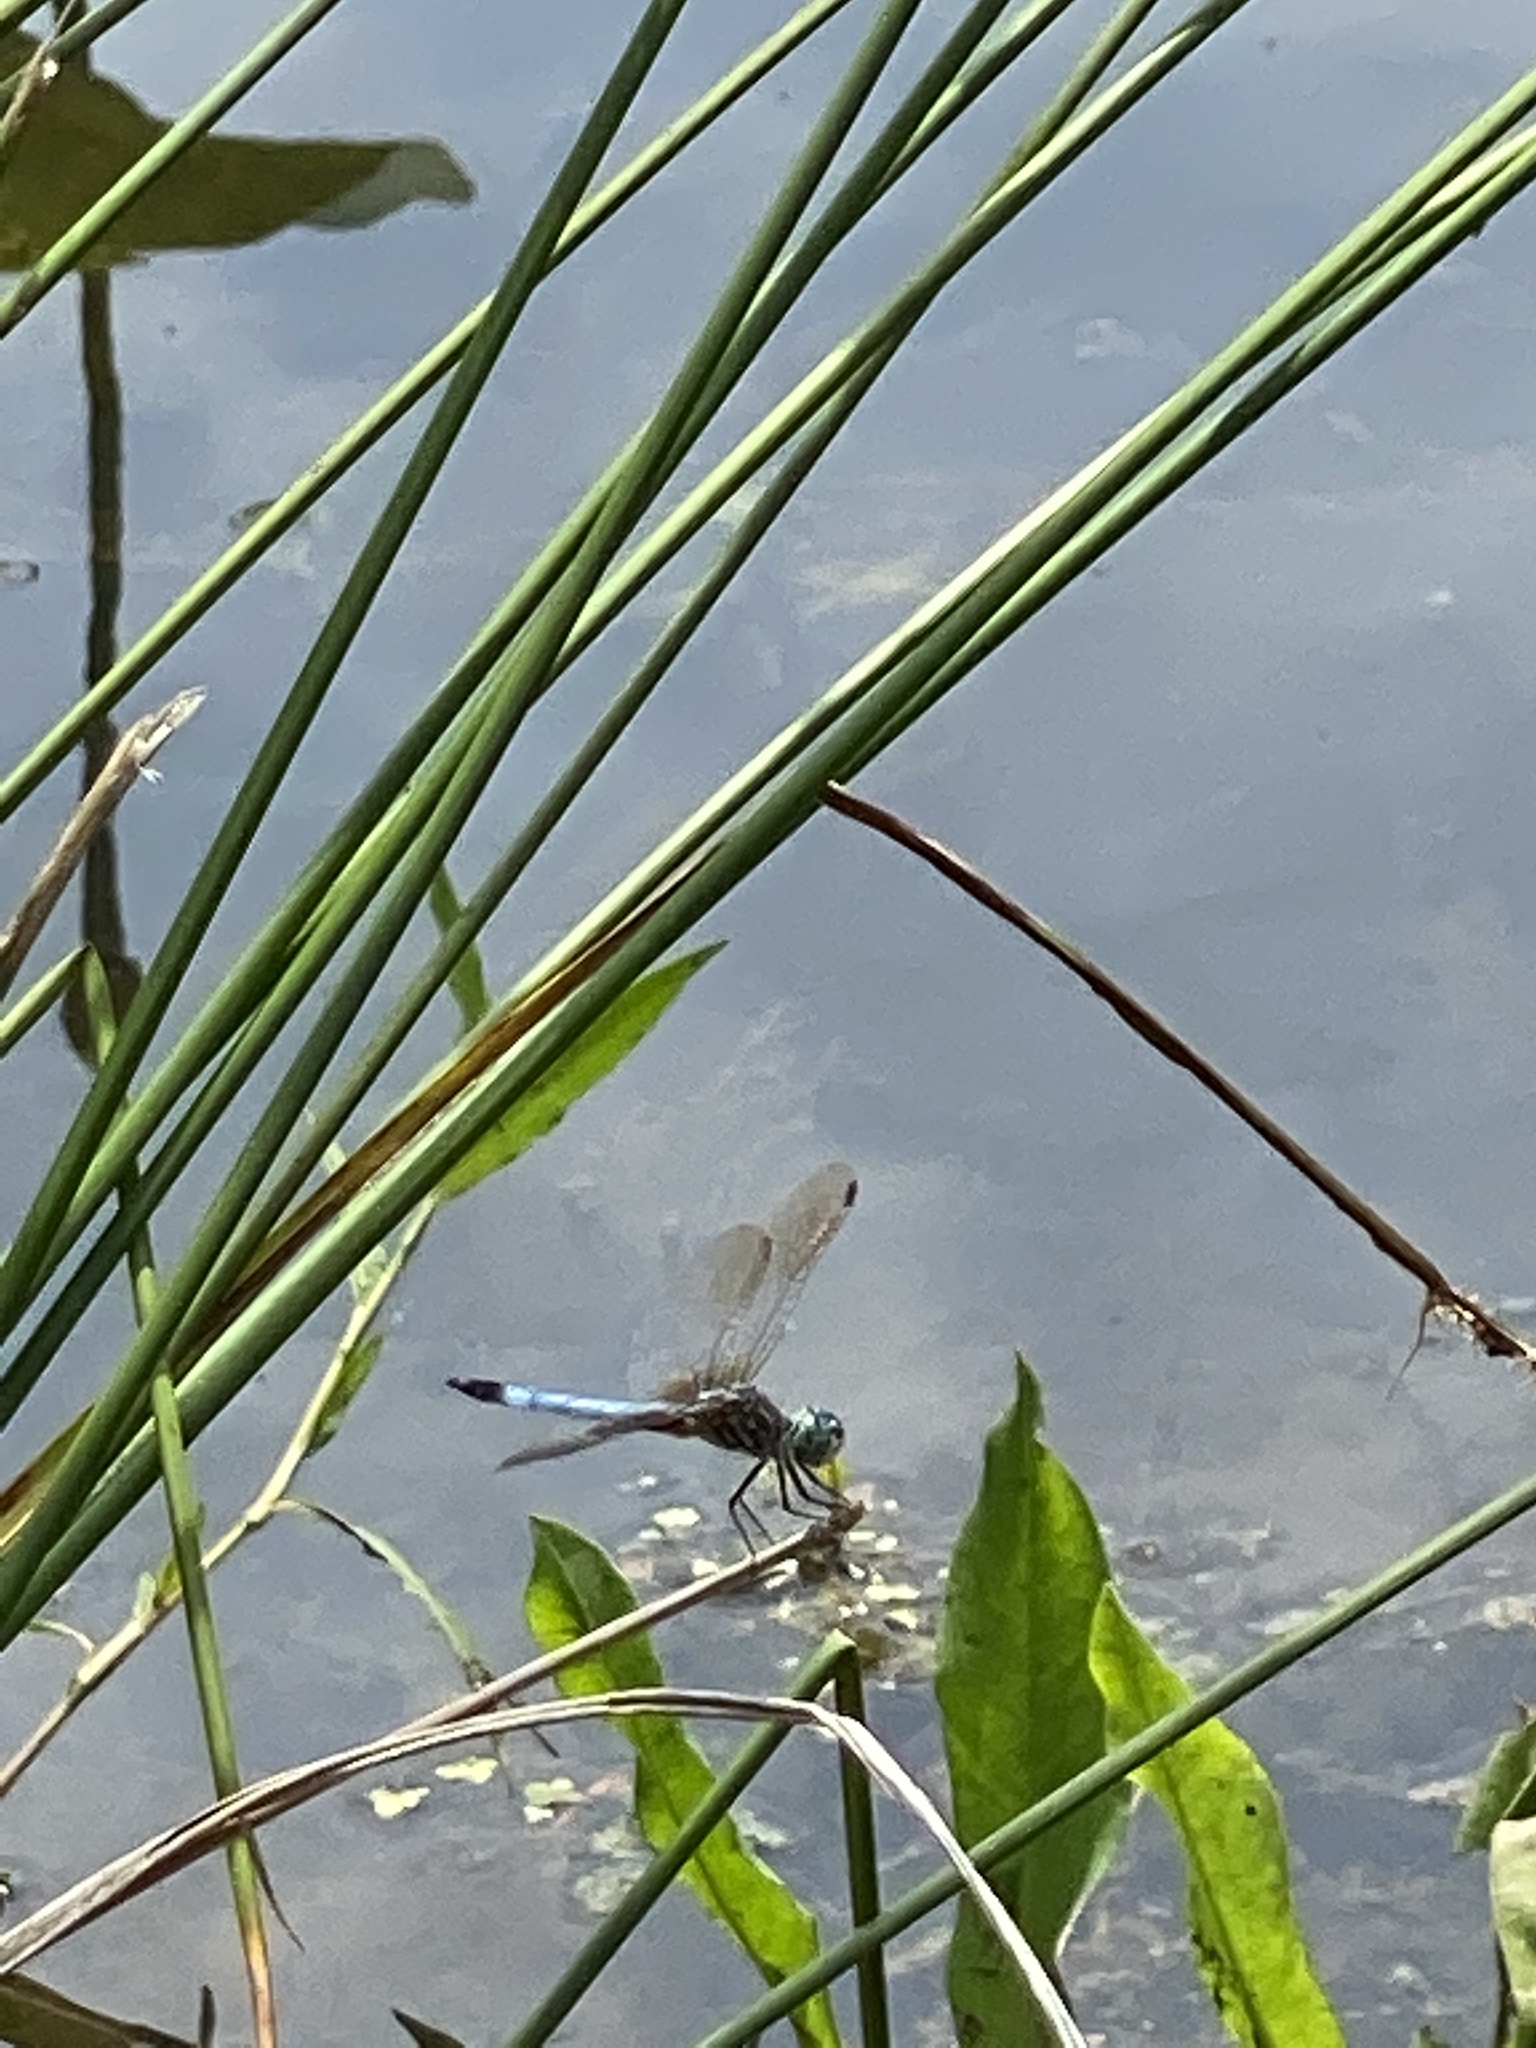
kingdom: Animalia
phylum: Arthropoda
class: Insecta
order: Odonata
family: Libellulidae
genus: Pachydiplax
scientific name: Pachydiplax longipennis
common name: Blue dasher
